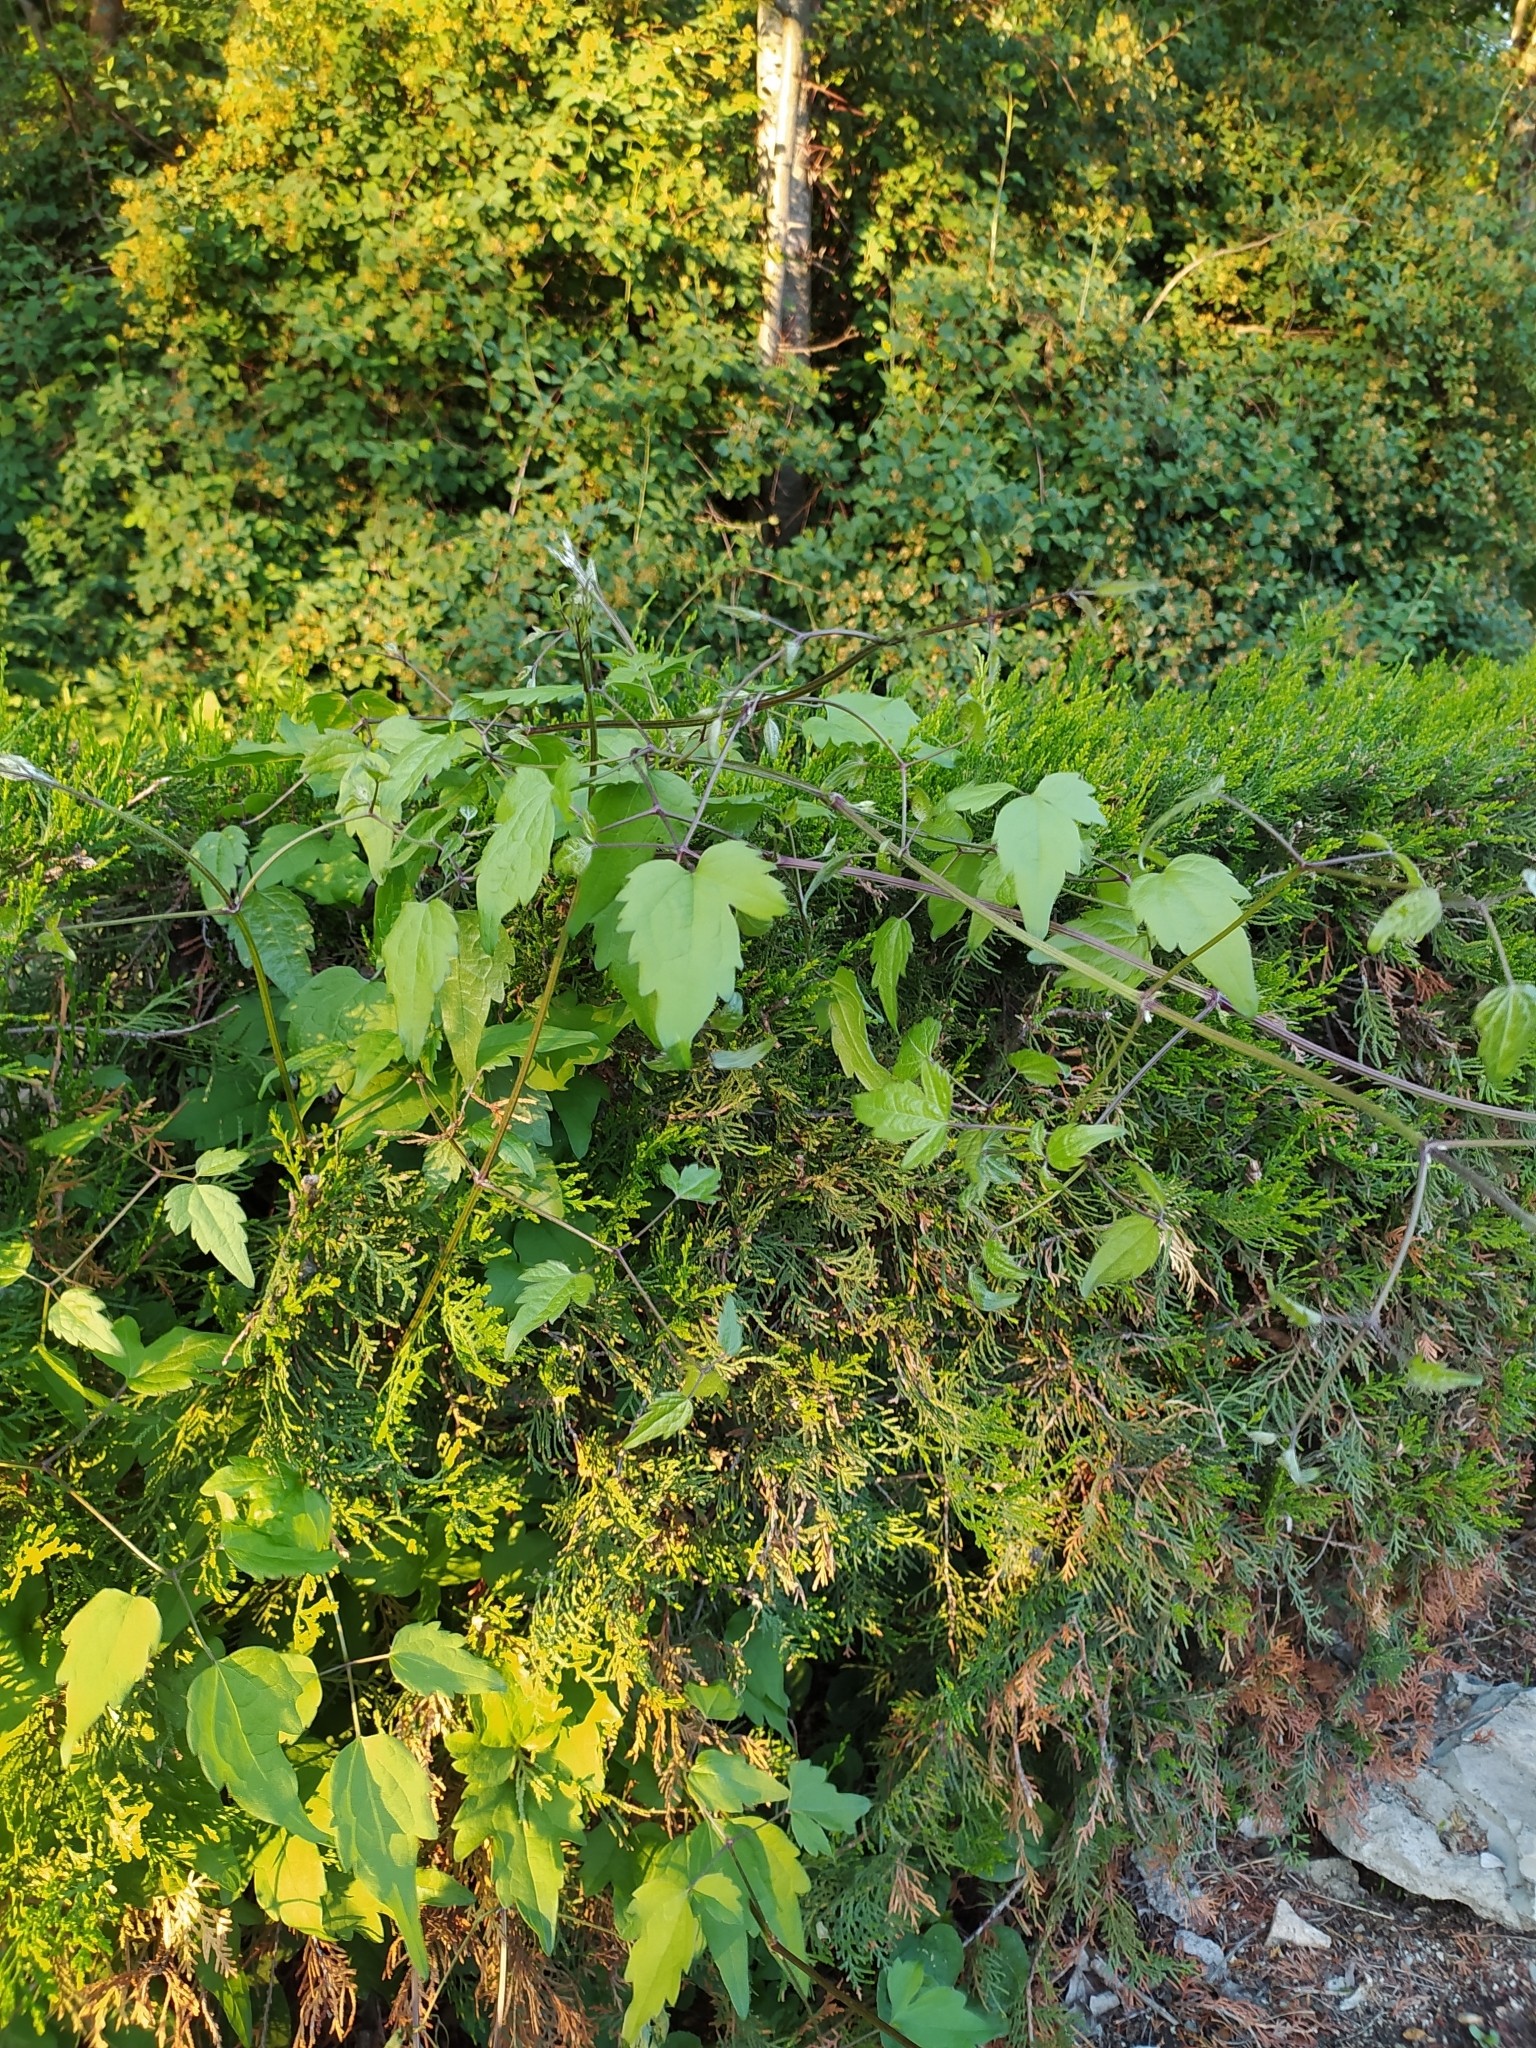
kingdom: Plantae
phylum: Tracheophyta
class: Magnoliopsida
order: Ranunculales
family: Ranunculaceae
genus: Clematis
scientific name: Clematis vitalba
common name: Evergreen clematis
